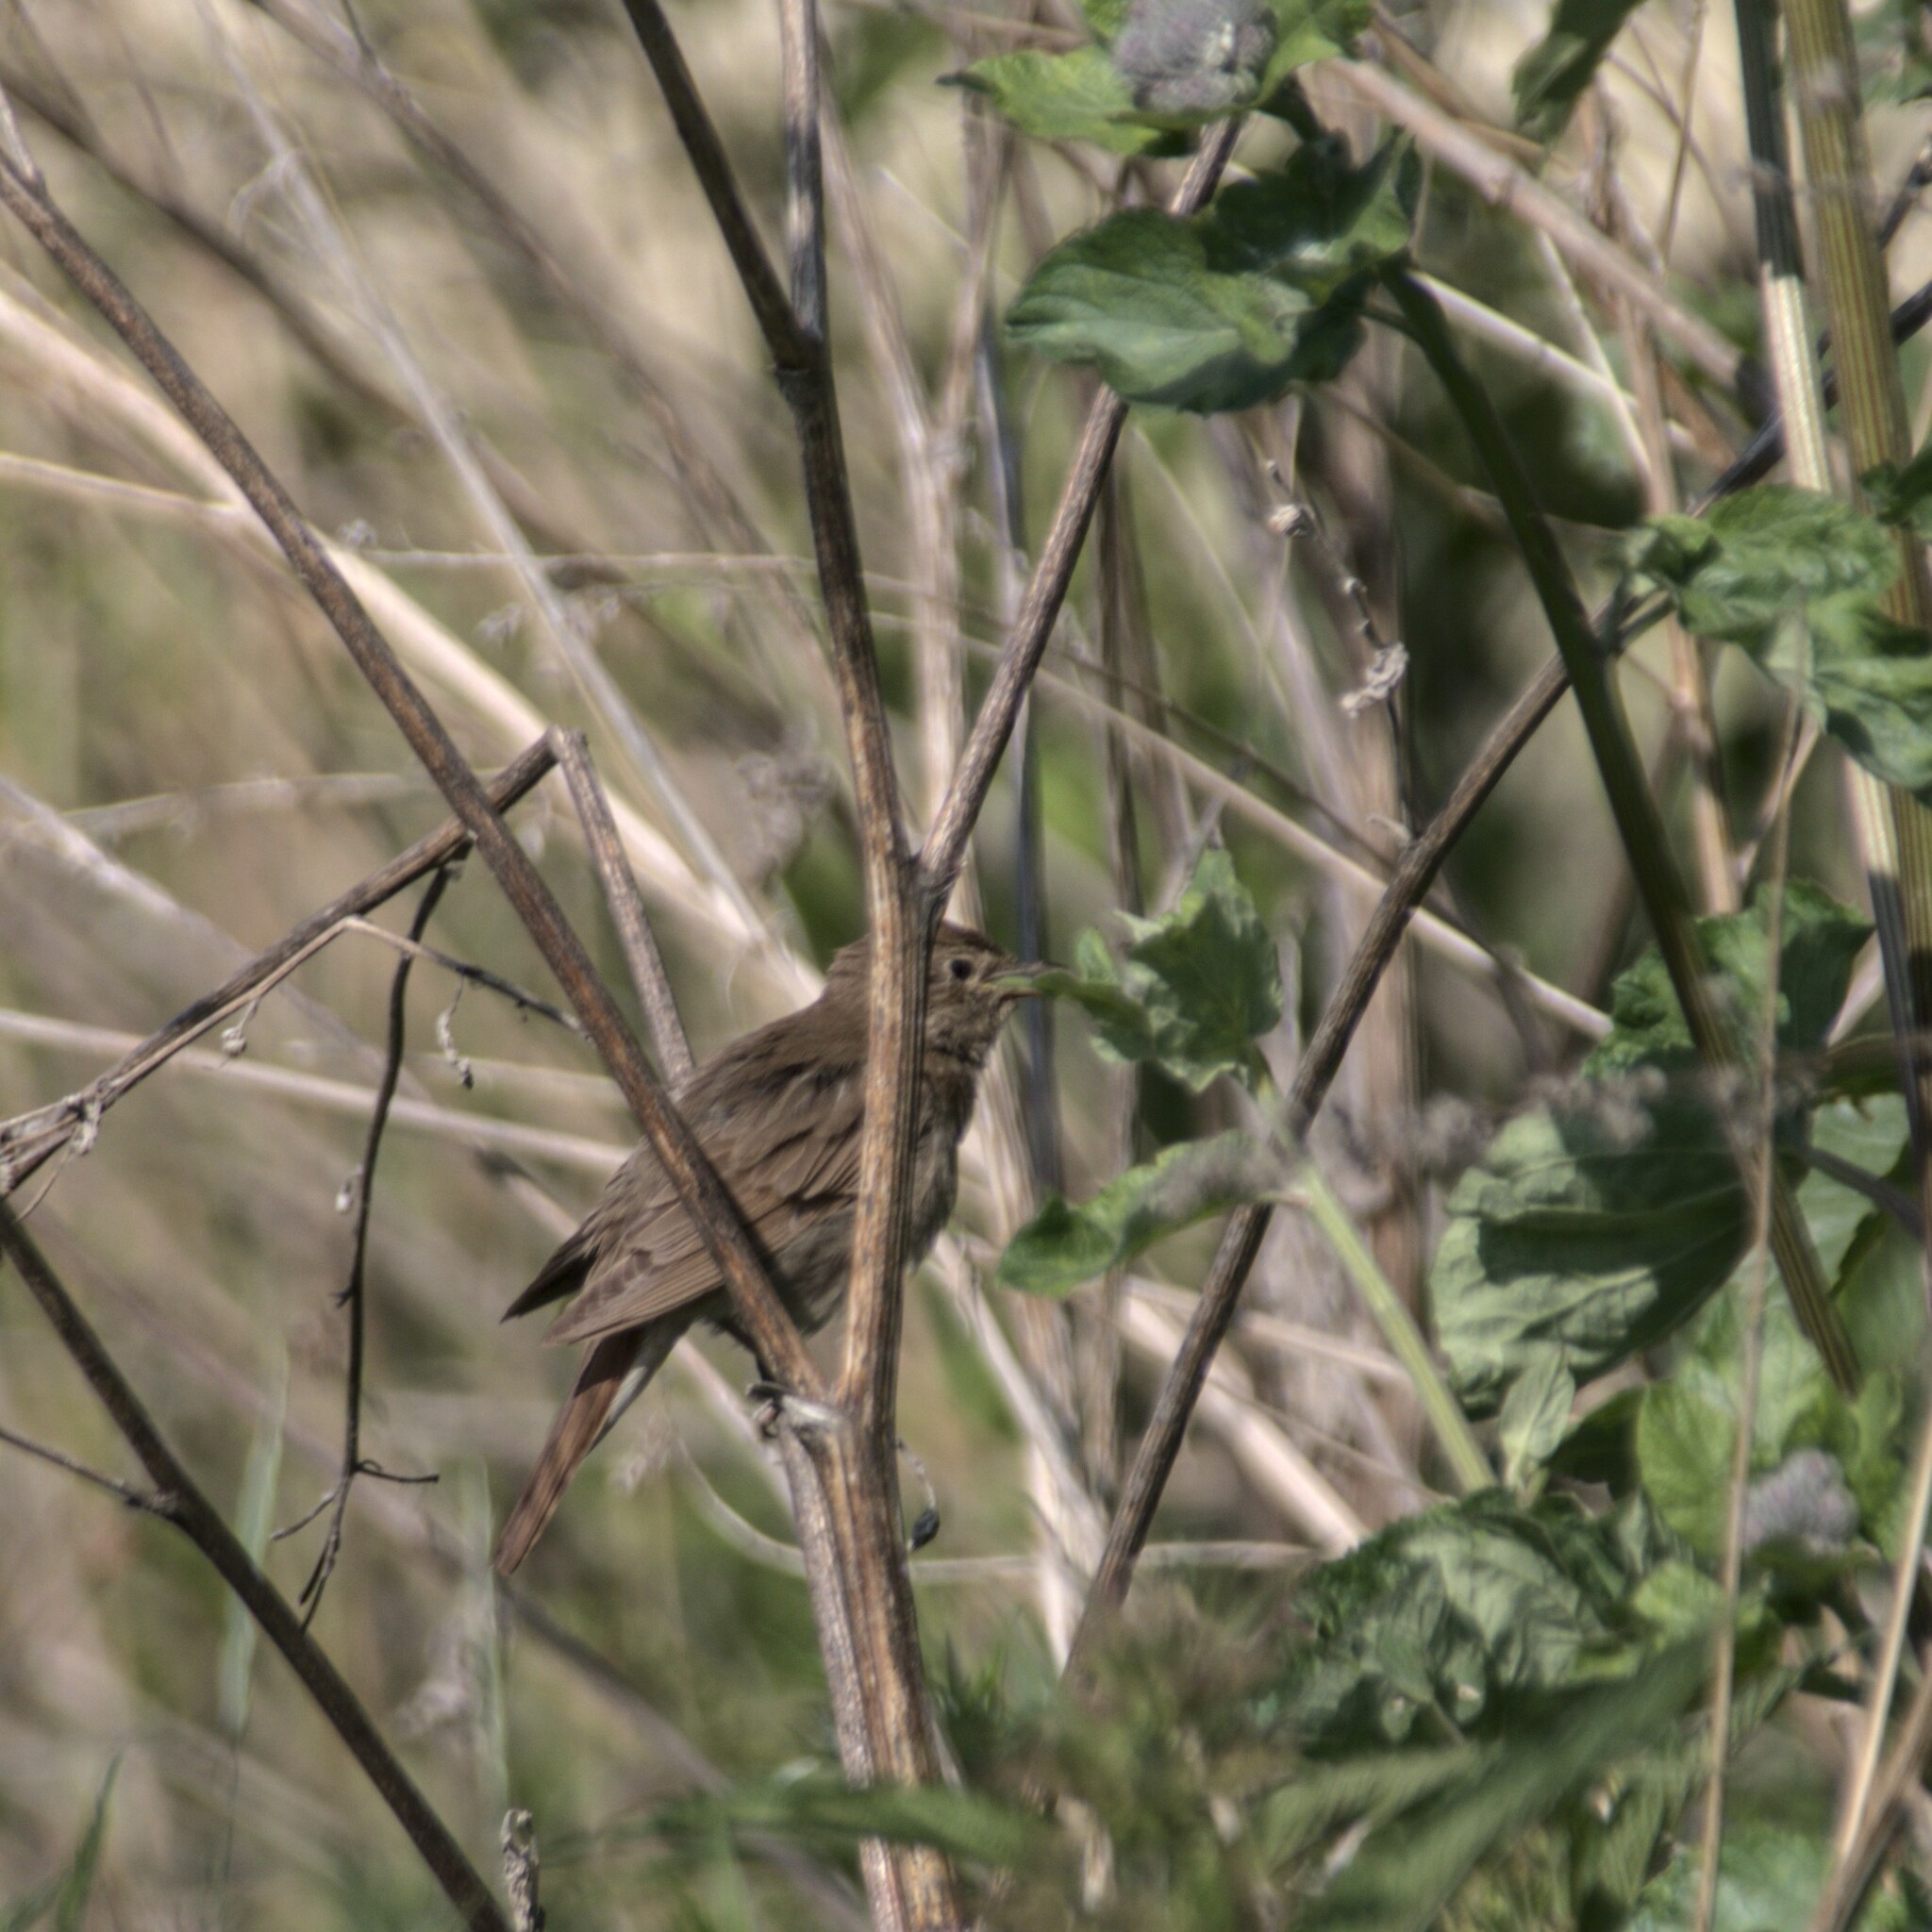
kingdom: Animalia
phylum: Chordata
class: Aves
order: Passeriformes
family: Muscicapidae
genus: Luscinia
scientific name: Luscinia luscinia
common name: Thrush nightingale
